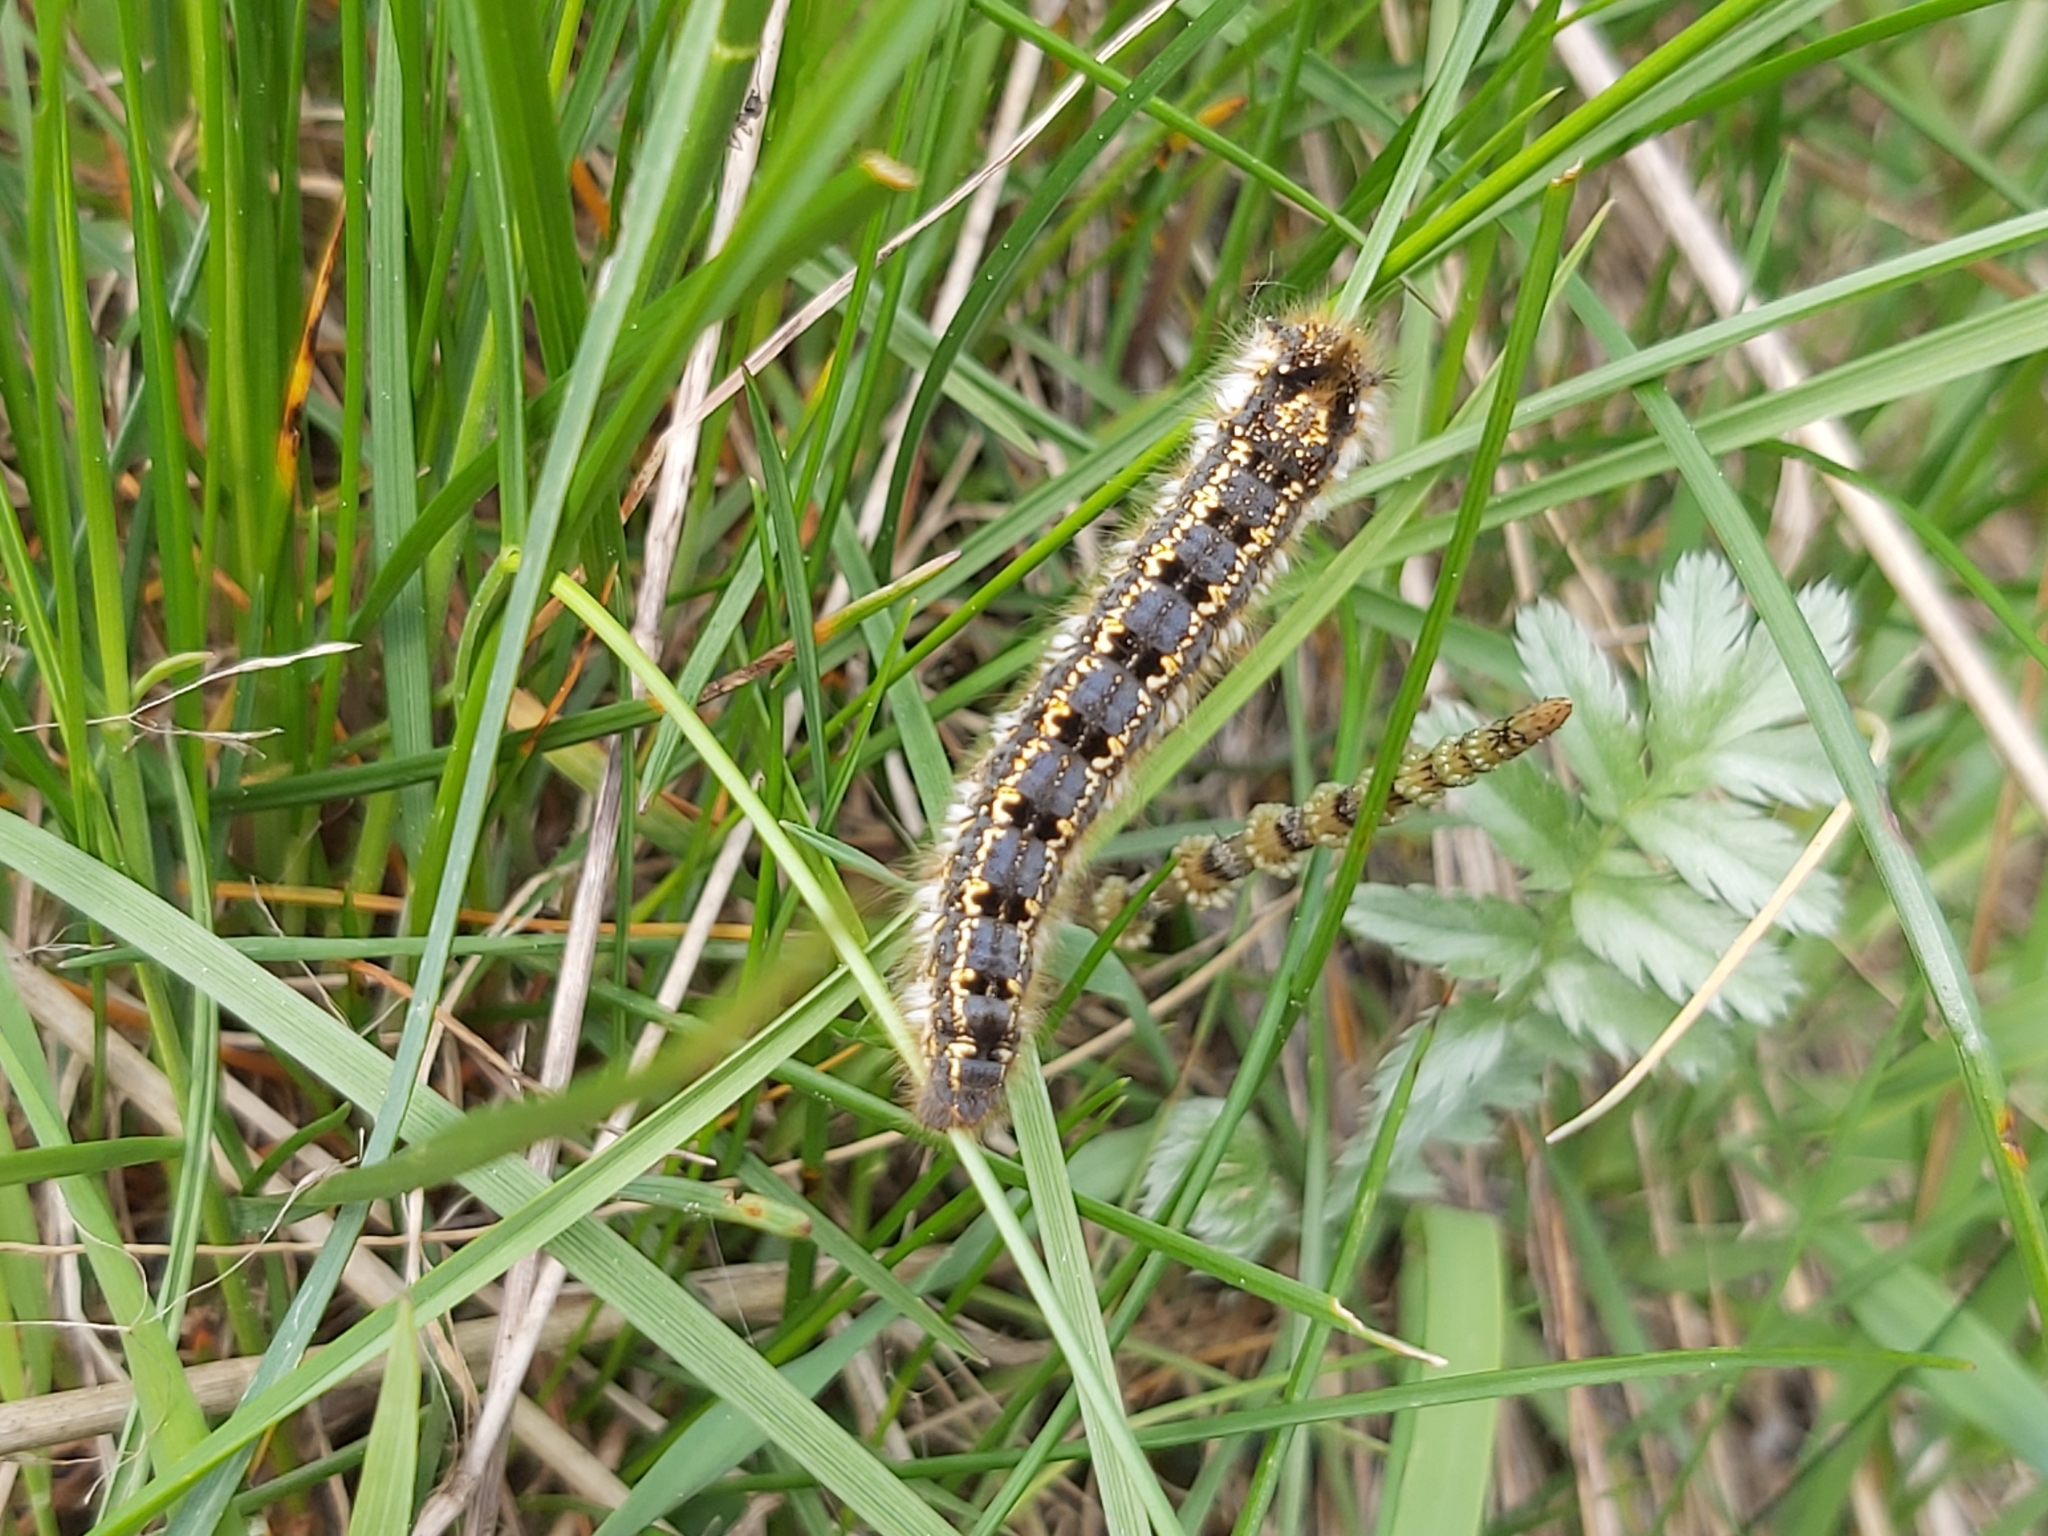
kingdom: Animalia
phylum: Arthropoda
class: Insecta
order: Lepidoptera
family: Lasiocampidae
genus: Euthrix
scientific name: Euthrix potatoria
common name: Drinker
